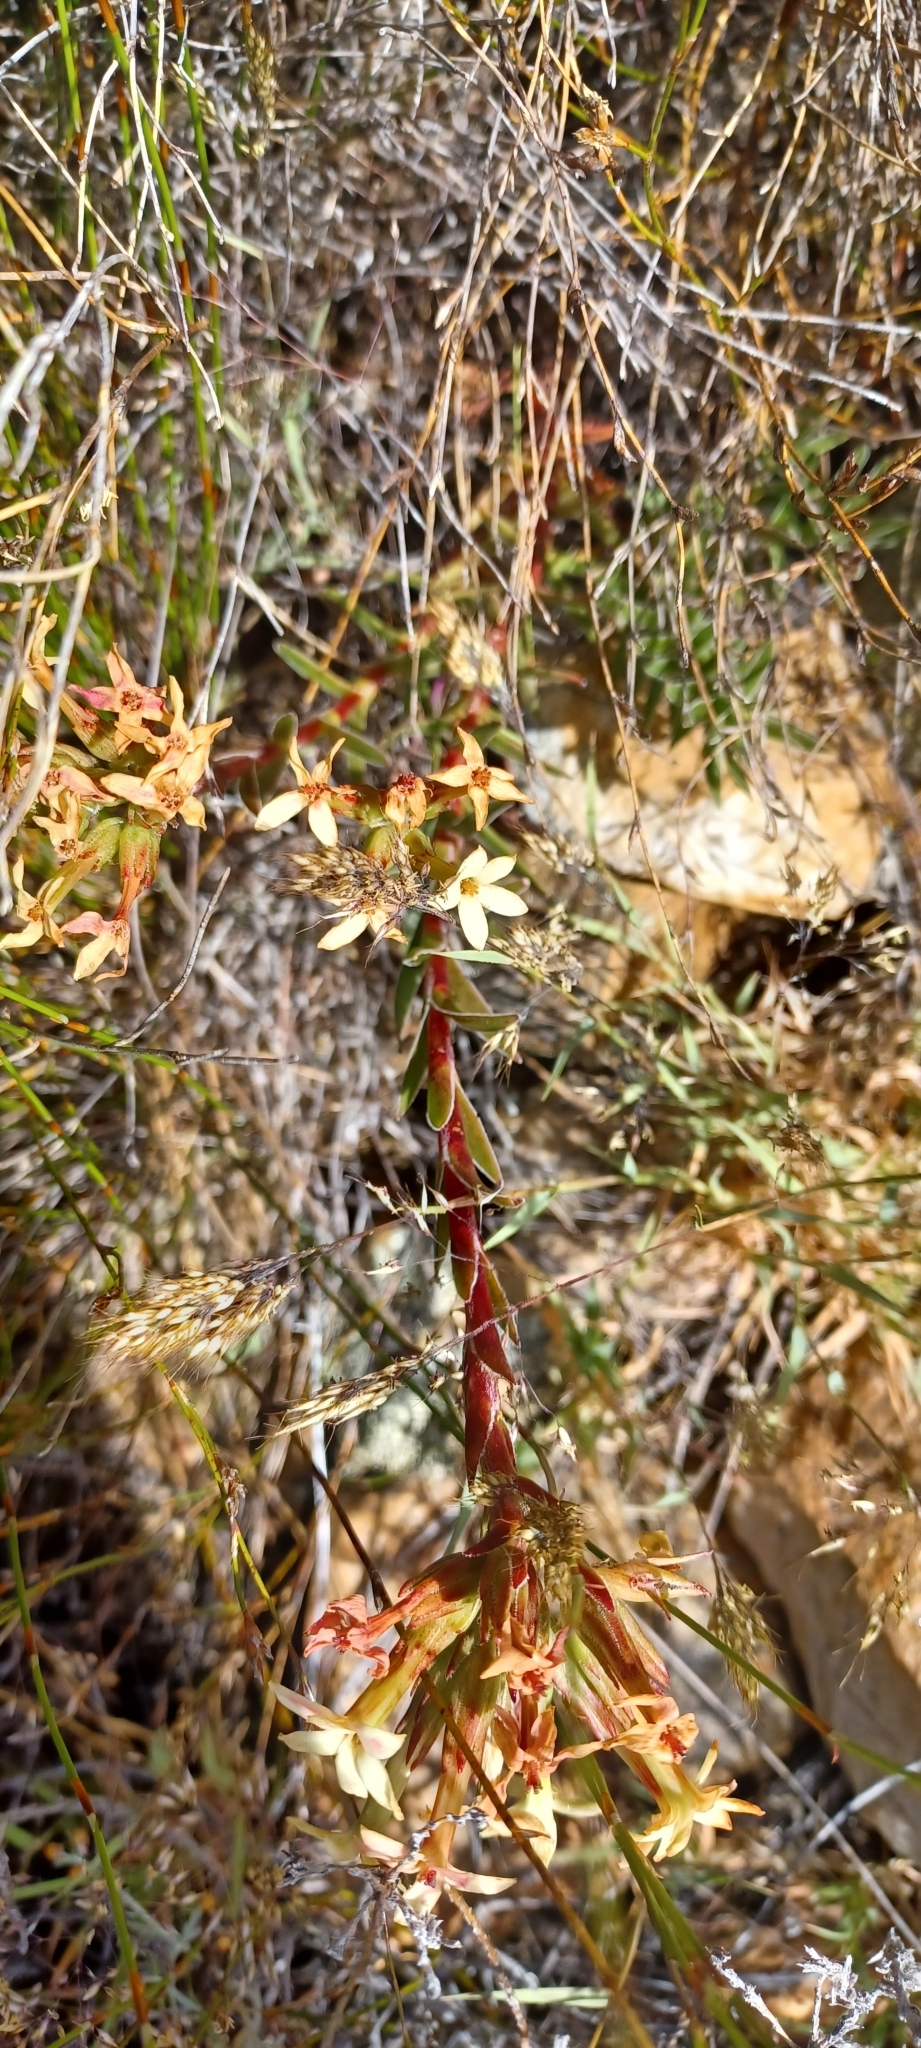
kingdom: Plantae
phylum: Tracheophyta
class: Magnoliopsida
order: Saxifragales
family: Crassulaceae
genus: Crassula
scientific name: Crassula fascicularis
